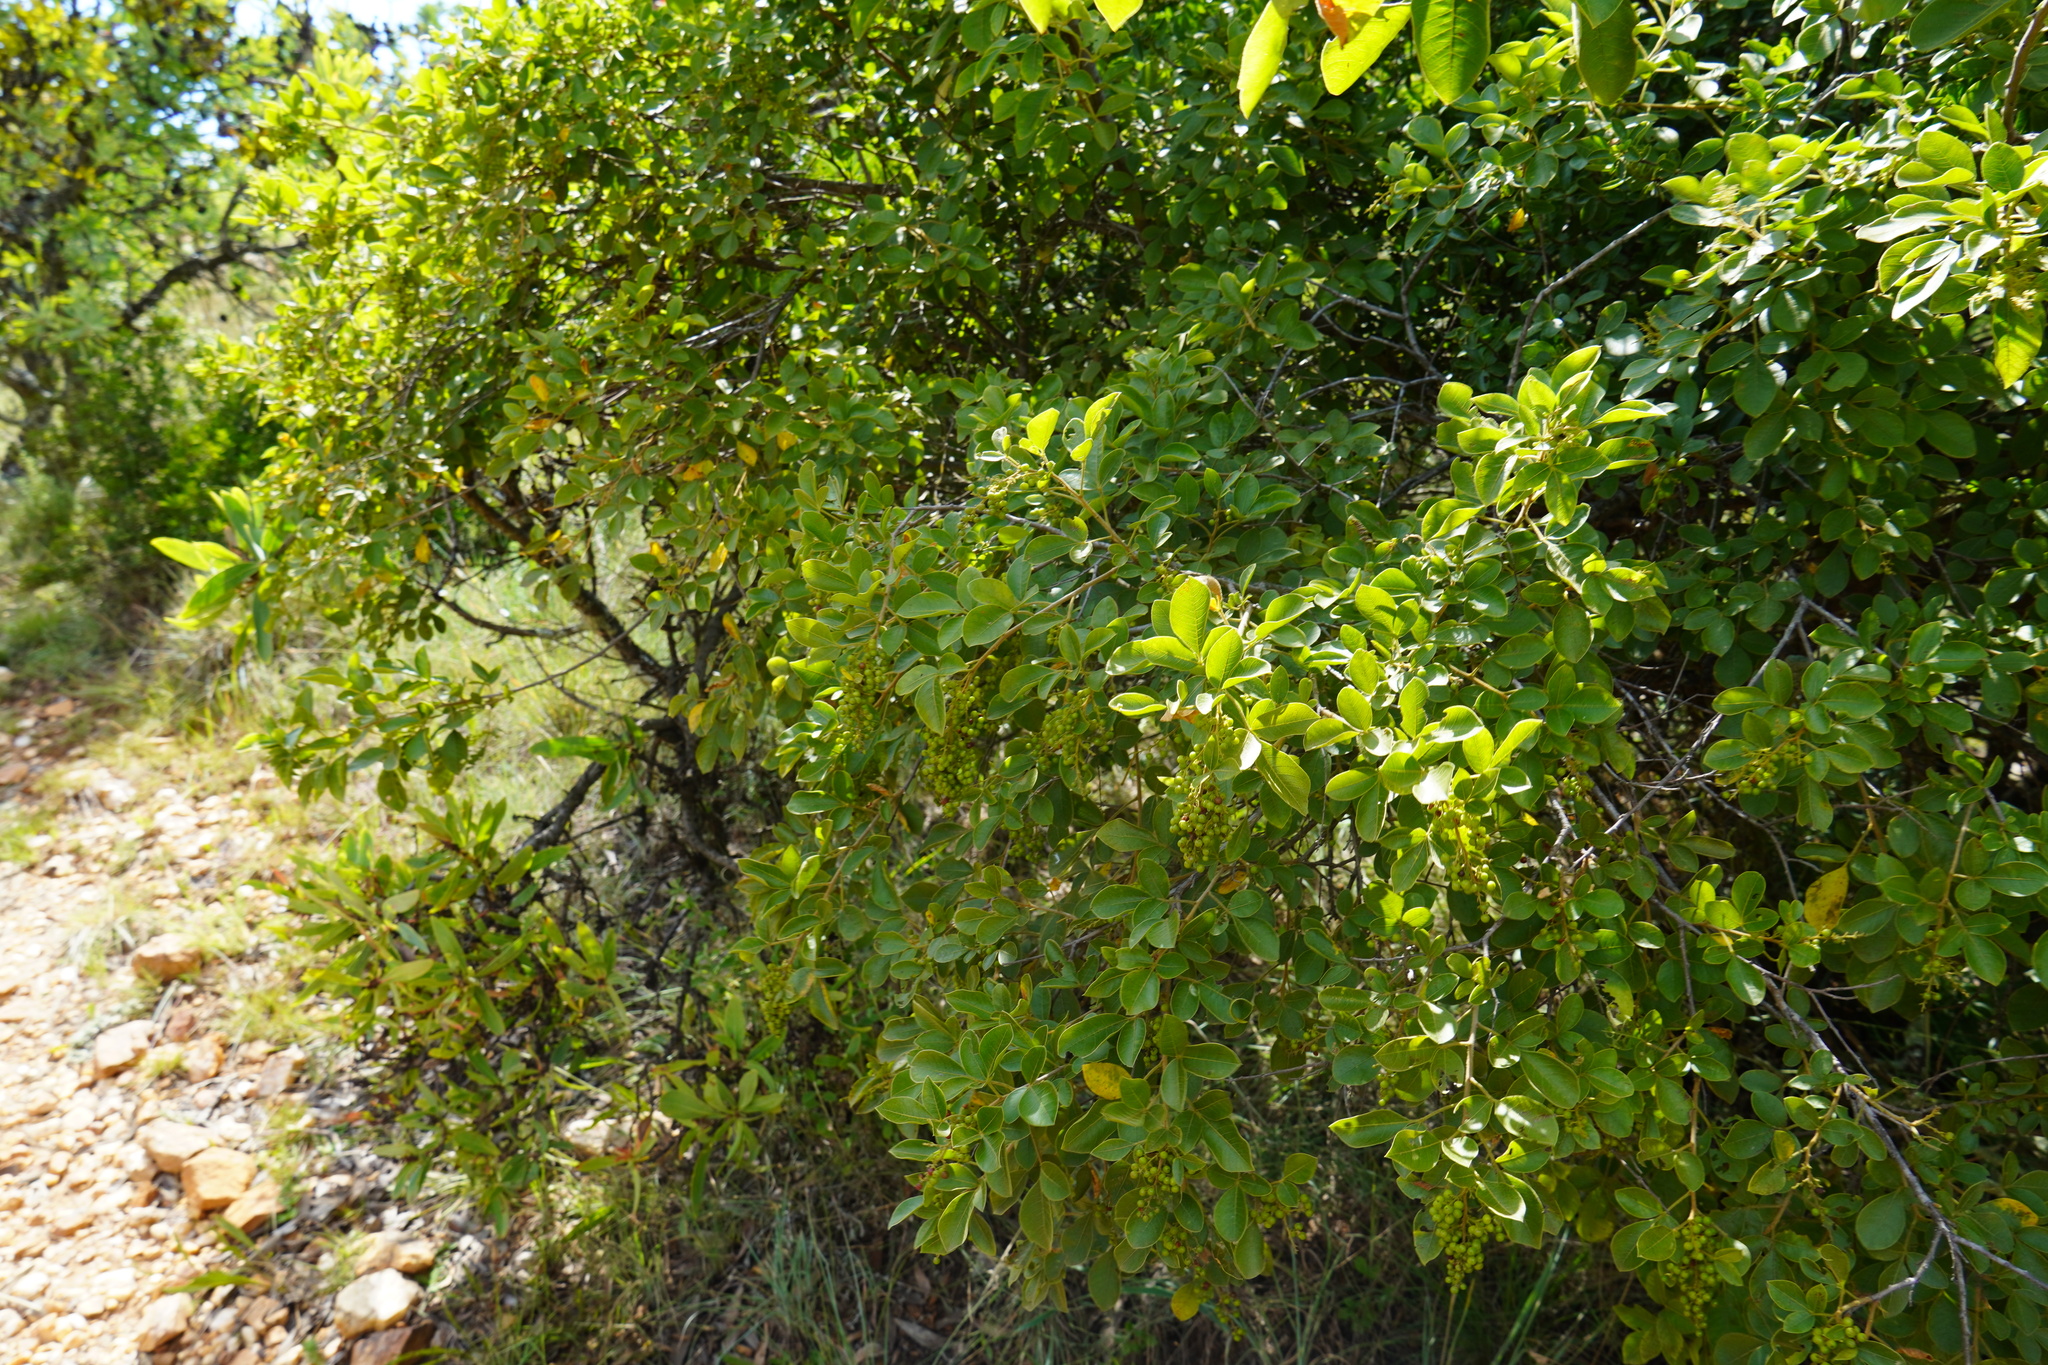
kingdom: Plantae
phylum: Tracheophyta
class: Magnoliopsida
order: Sapindales
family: Anacardiaceae
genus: Searsia
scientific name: Searsia pyroides
